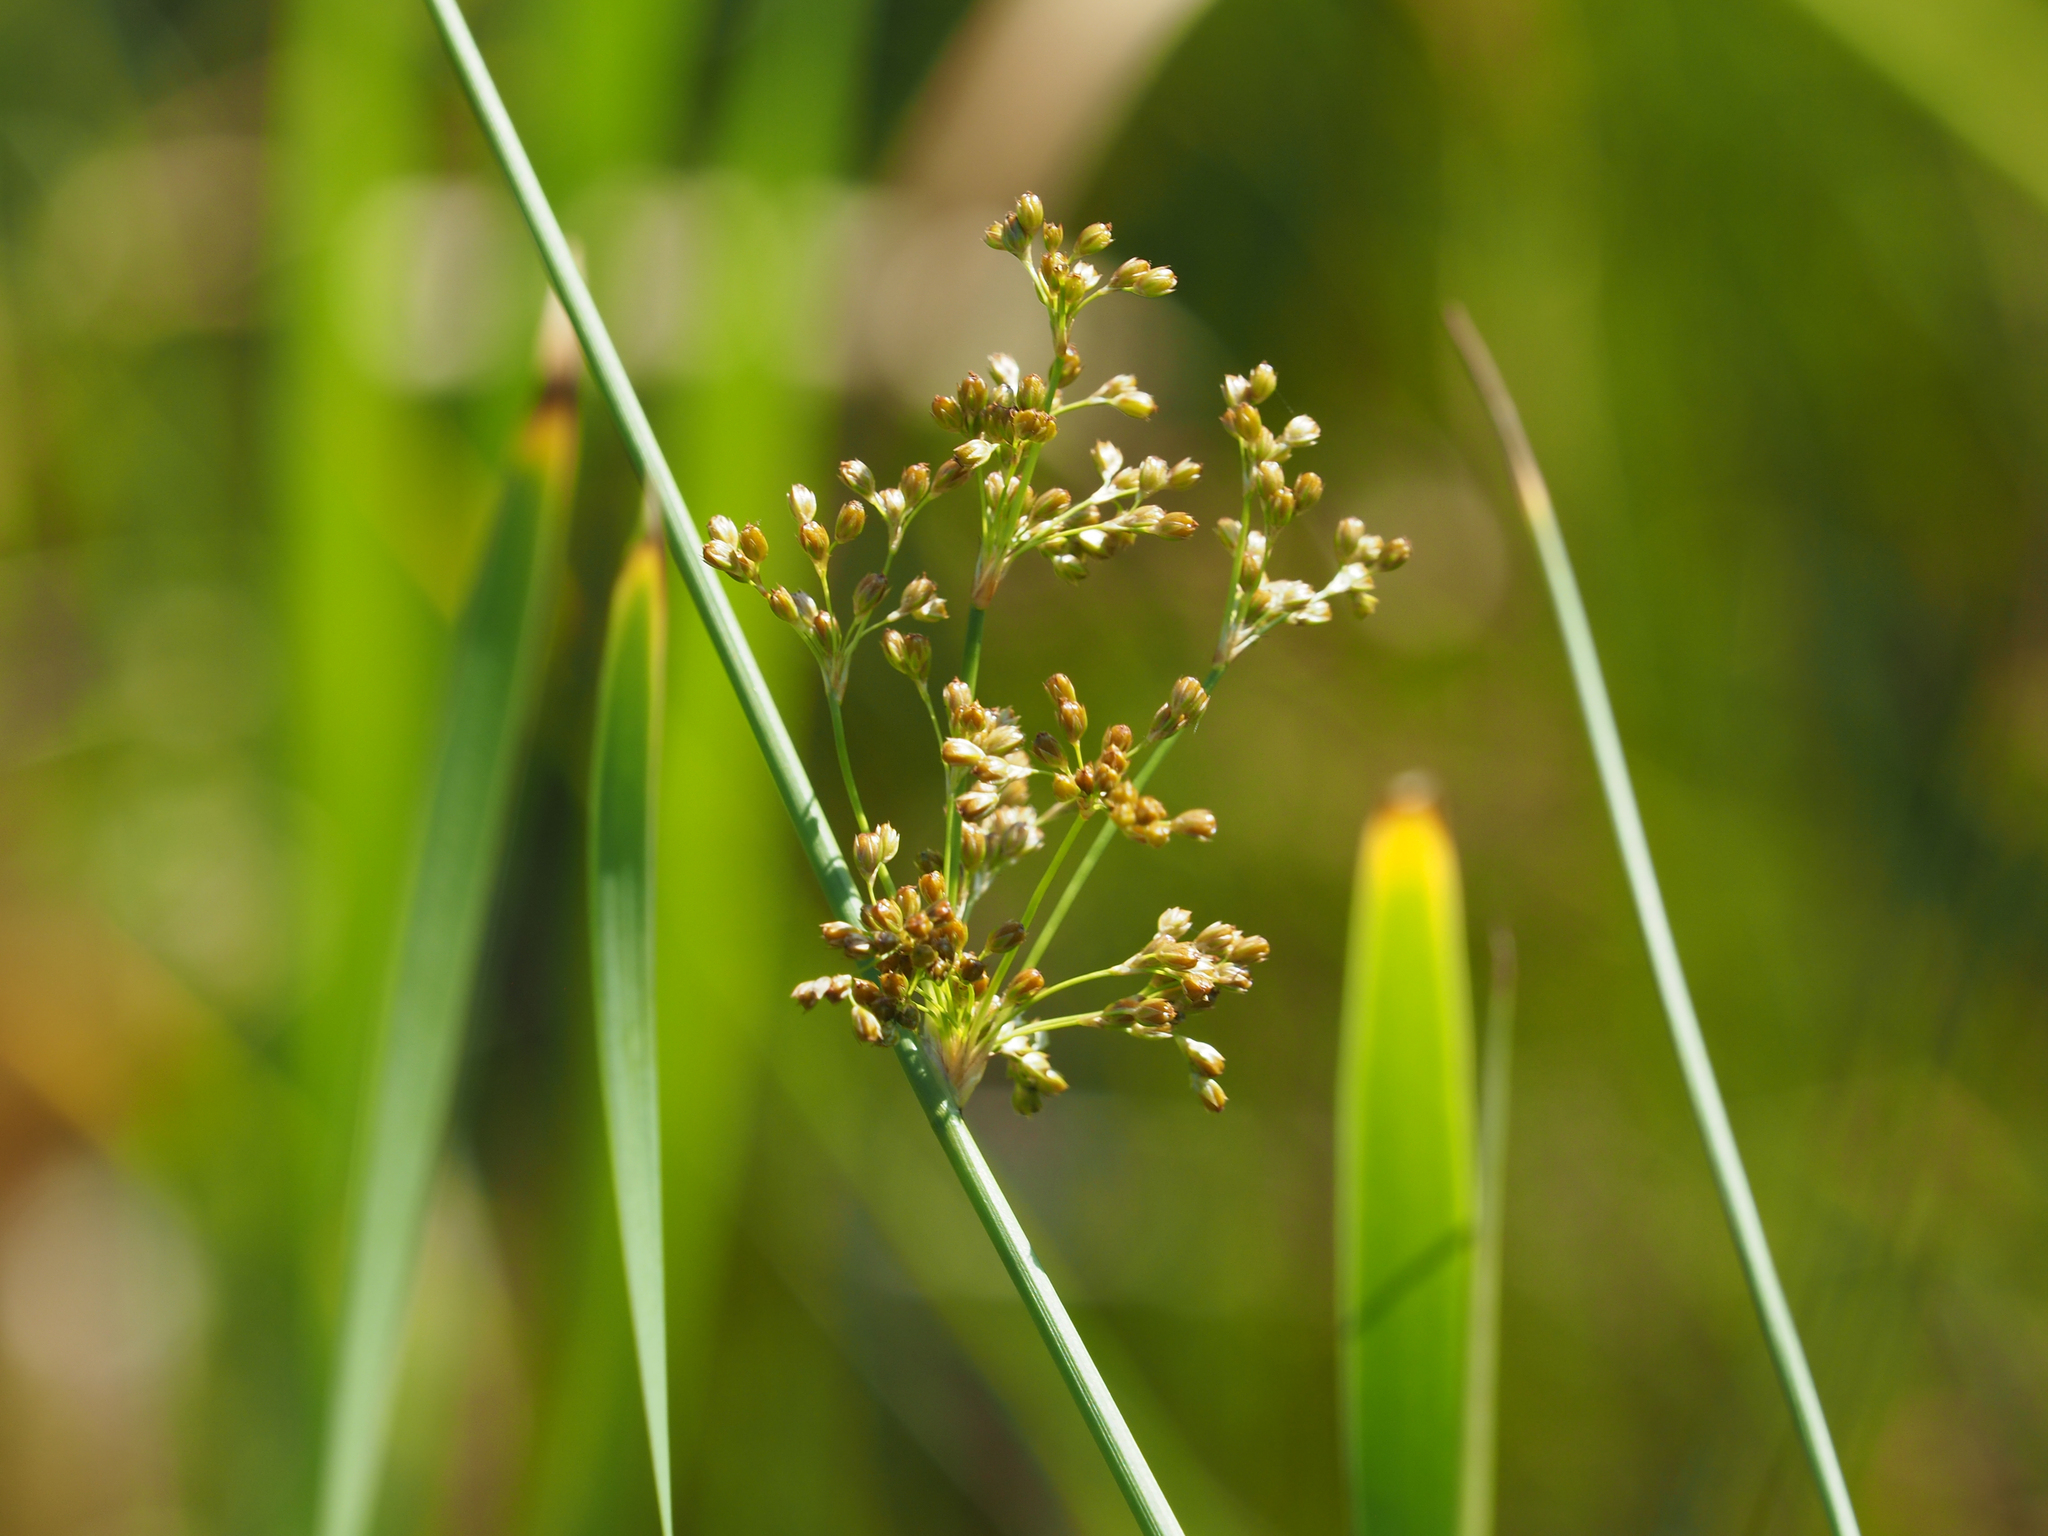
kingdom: Plantae
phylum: Tracheophyta
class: Liliopsida
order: Poales
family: Juncaceae
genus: Juncus
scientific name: Juncus effusus
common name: Soft rush
